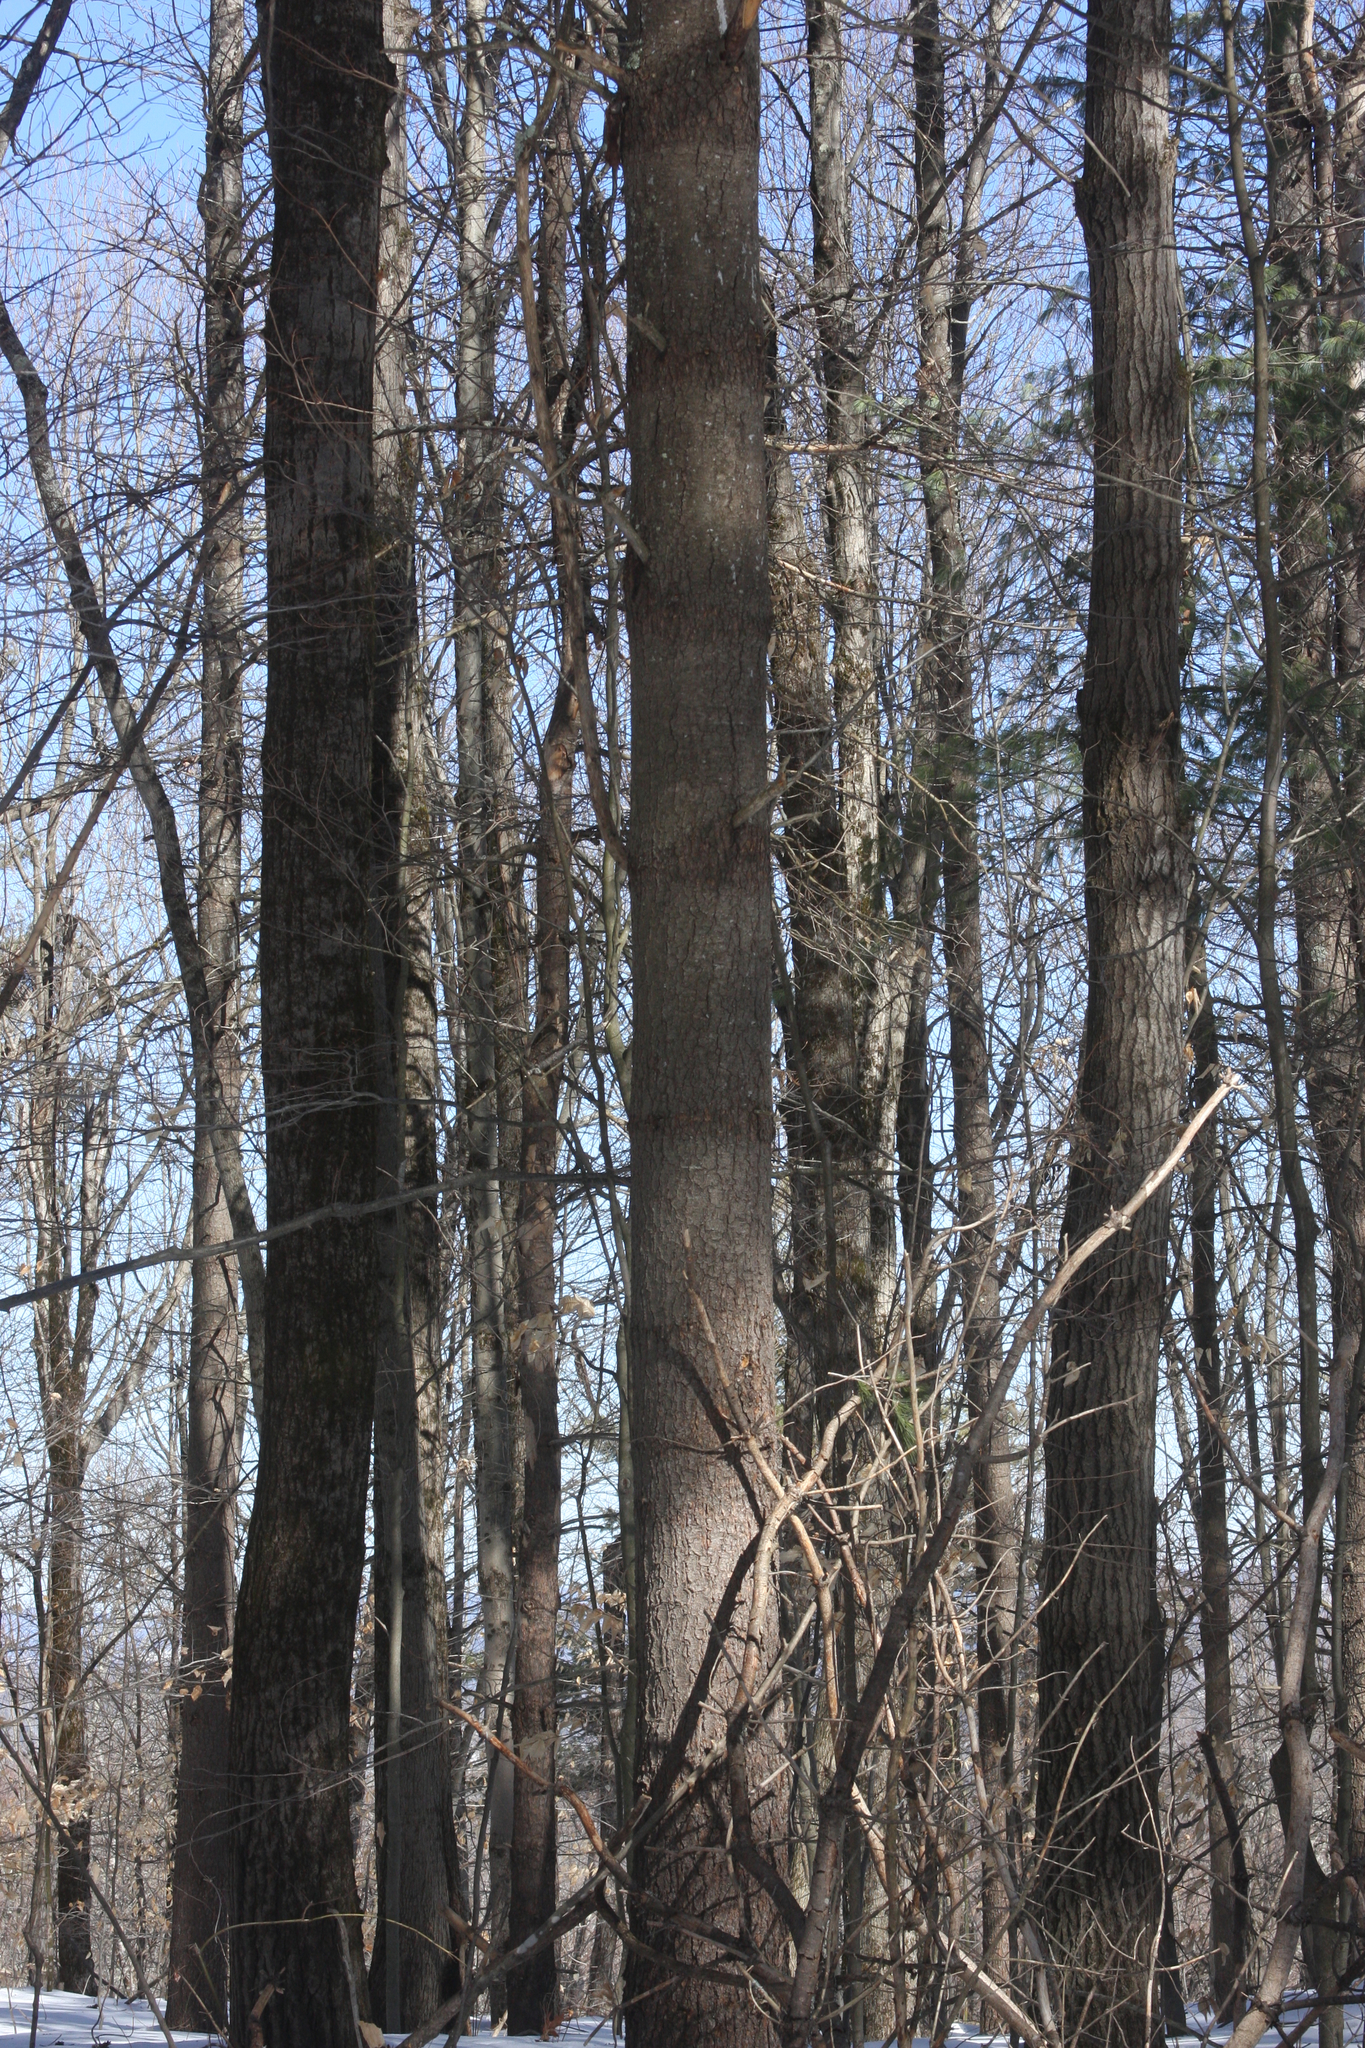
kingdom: Plantae
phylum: Tracheophyta
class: Pinopsida
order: Pinales
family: Pinaceae
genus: Pinus
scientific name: Pinus strobus
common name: Weymouth pine
